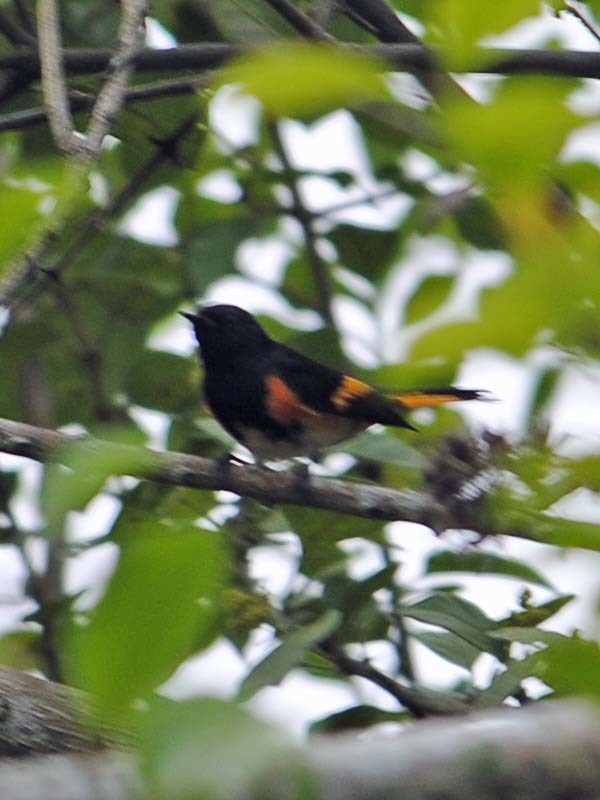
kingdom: Animalia
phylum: Chordata
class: Aves
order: Passeriformes
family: Parulidae
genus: Setophaga
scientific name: Setophaga ruticilla
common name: American redstart
